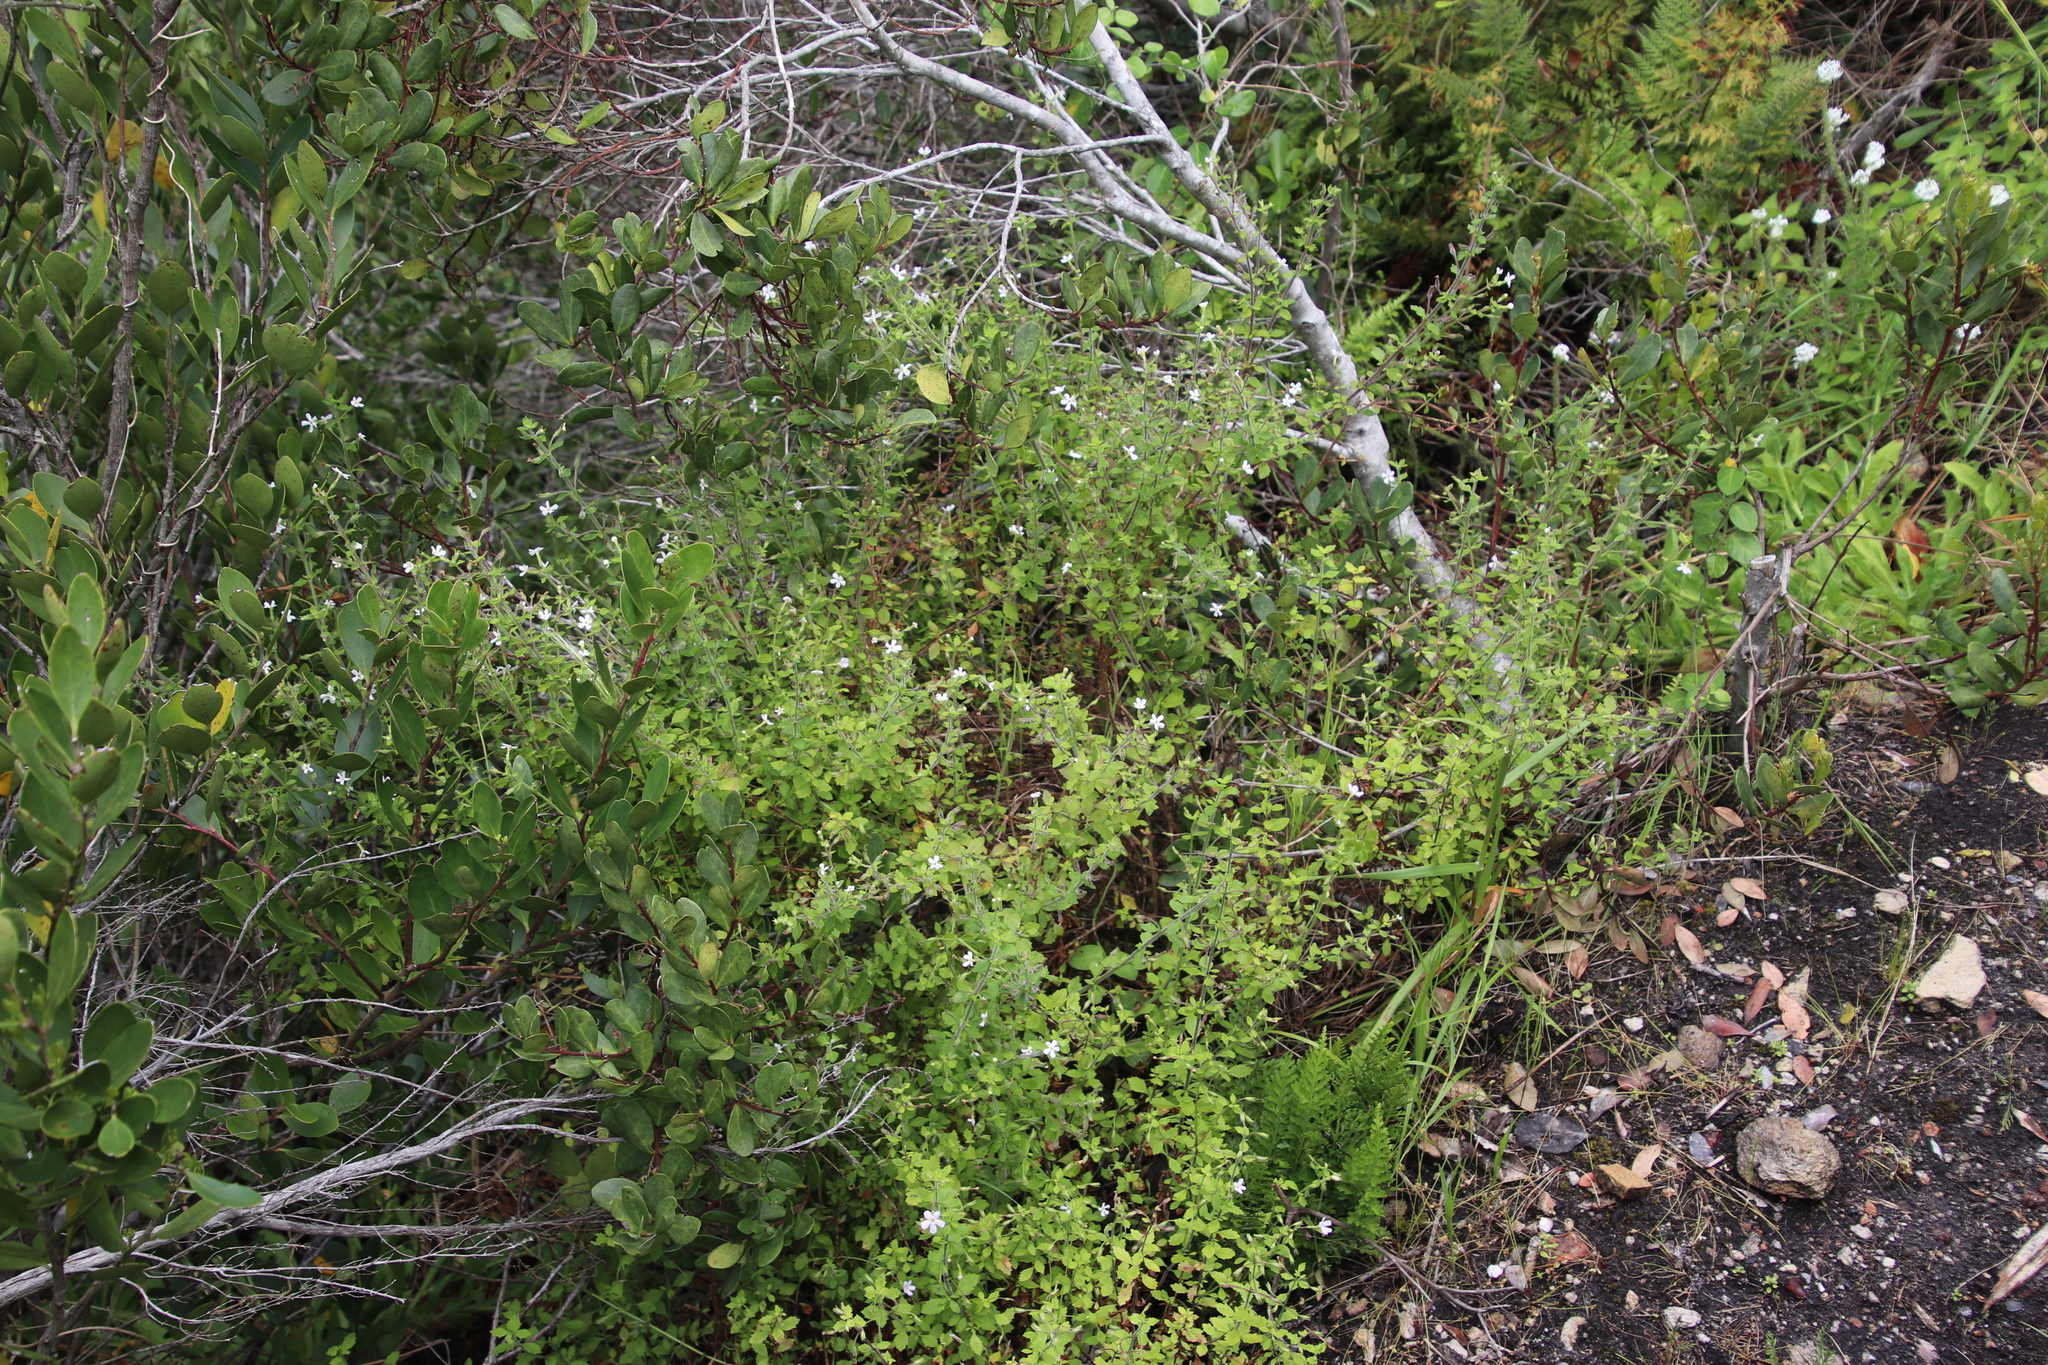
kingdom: Plantae
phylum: Tracheophyta
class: Magnoliopsida
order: Lamiales
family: Scrophulariaceae
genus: Chaenostoma
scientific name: Chaenostoma hispidum
